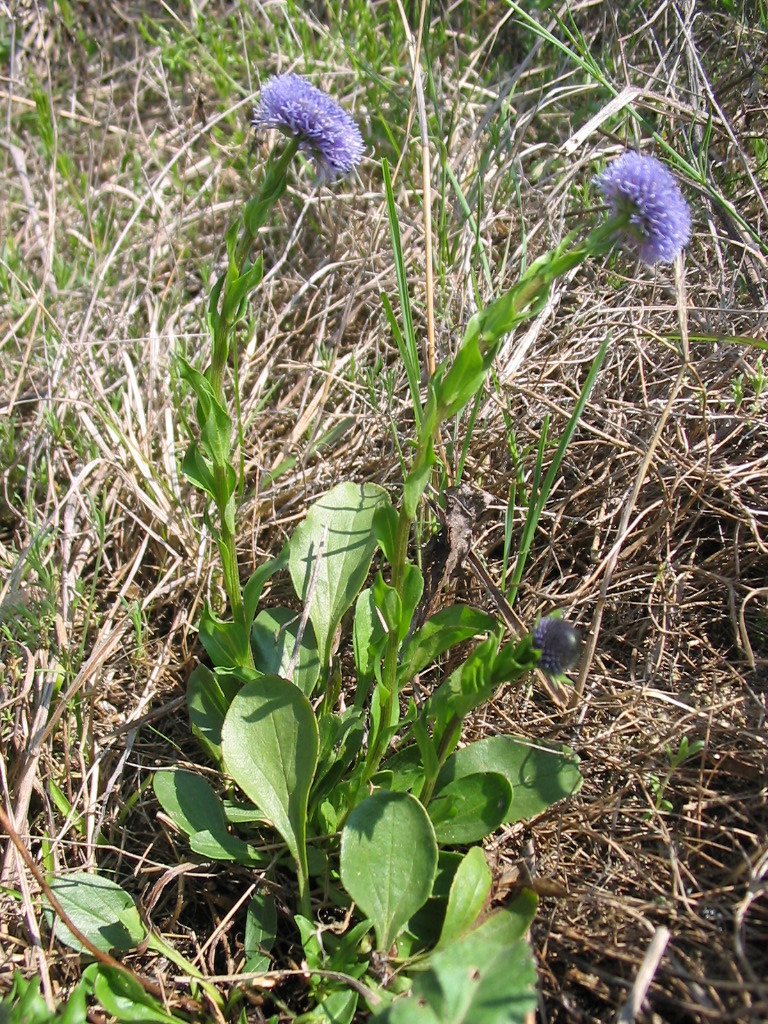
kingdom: Plantae
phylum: Tracheophyta
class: Magnoliopsida
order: Lamiales
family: Plantaginaceae
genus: Globularia
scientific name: Globularia bisnagarica
